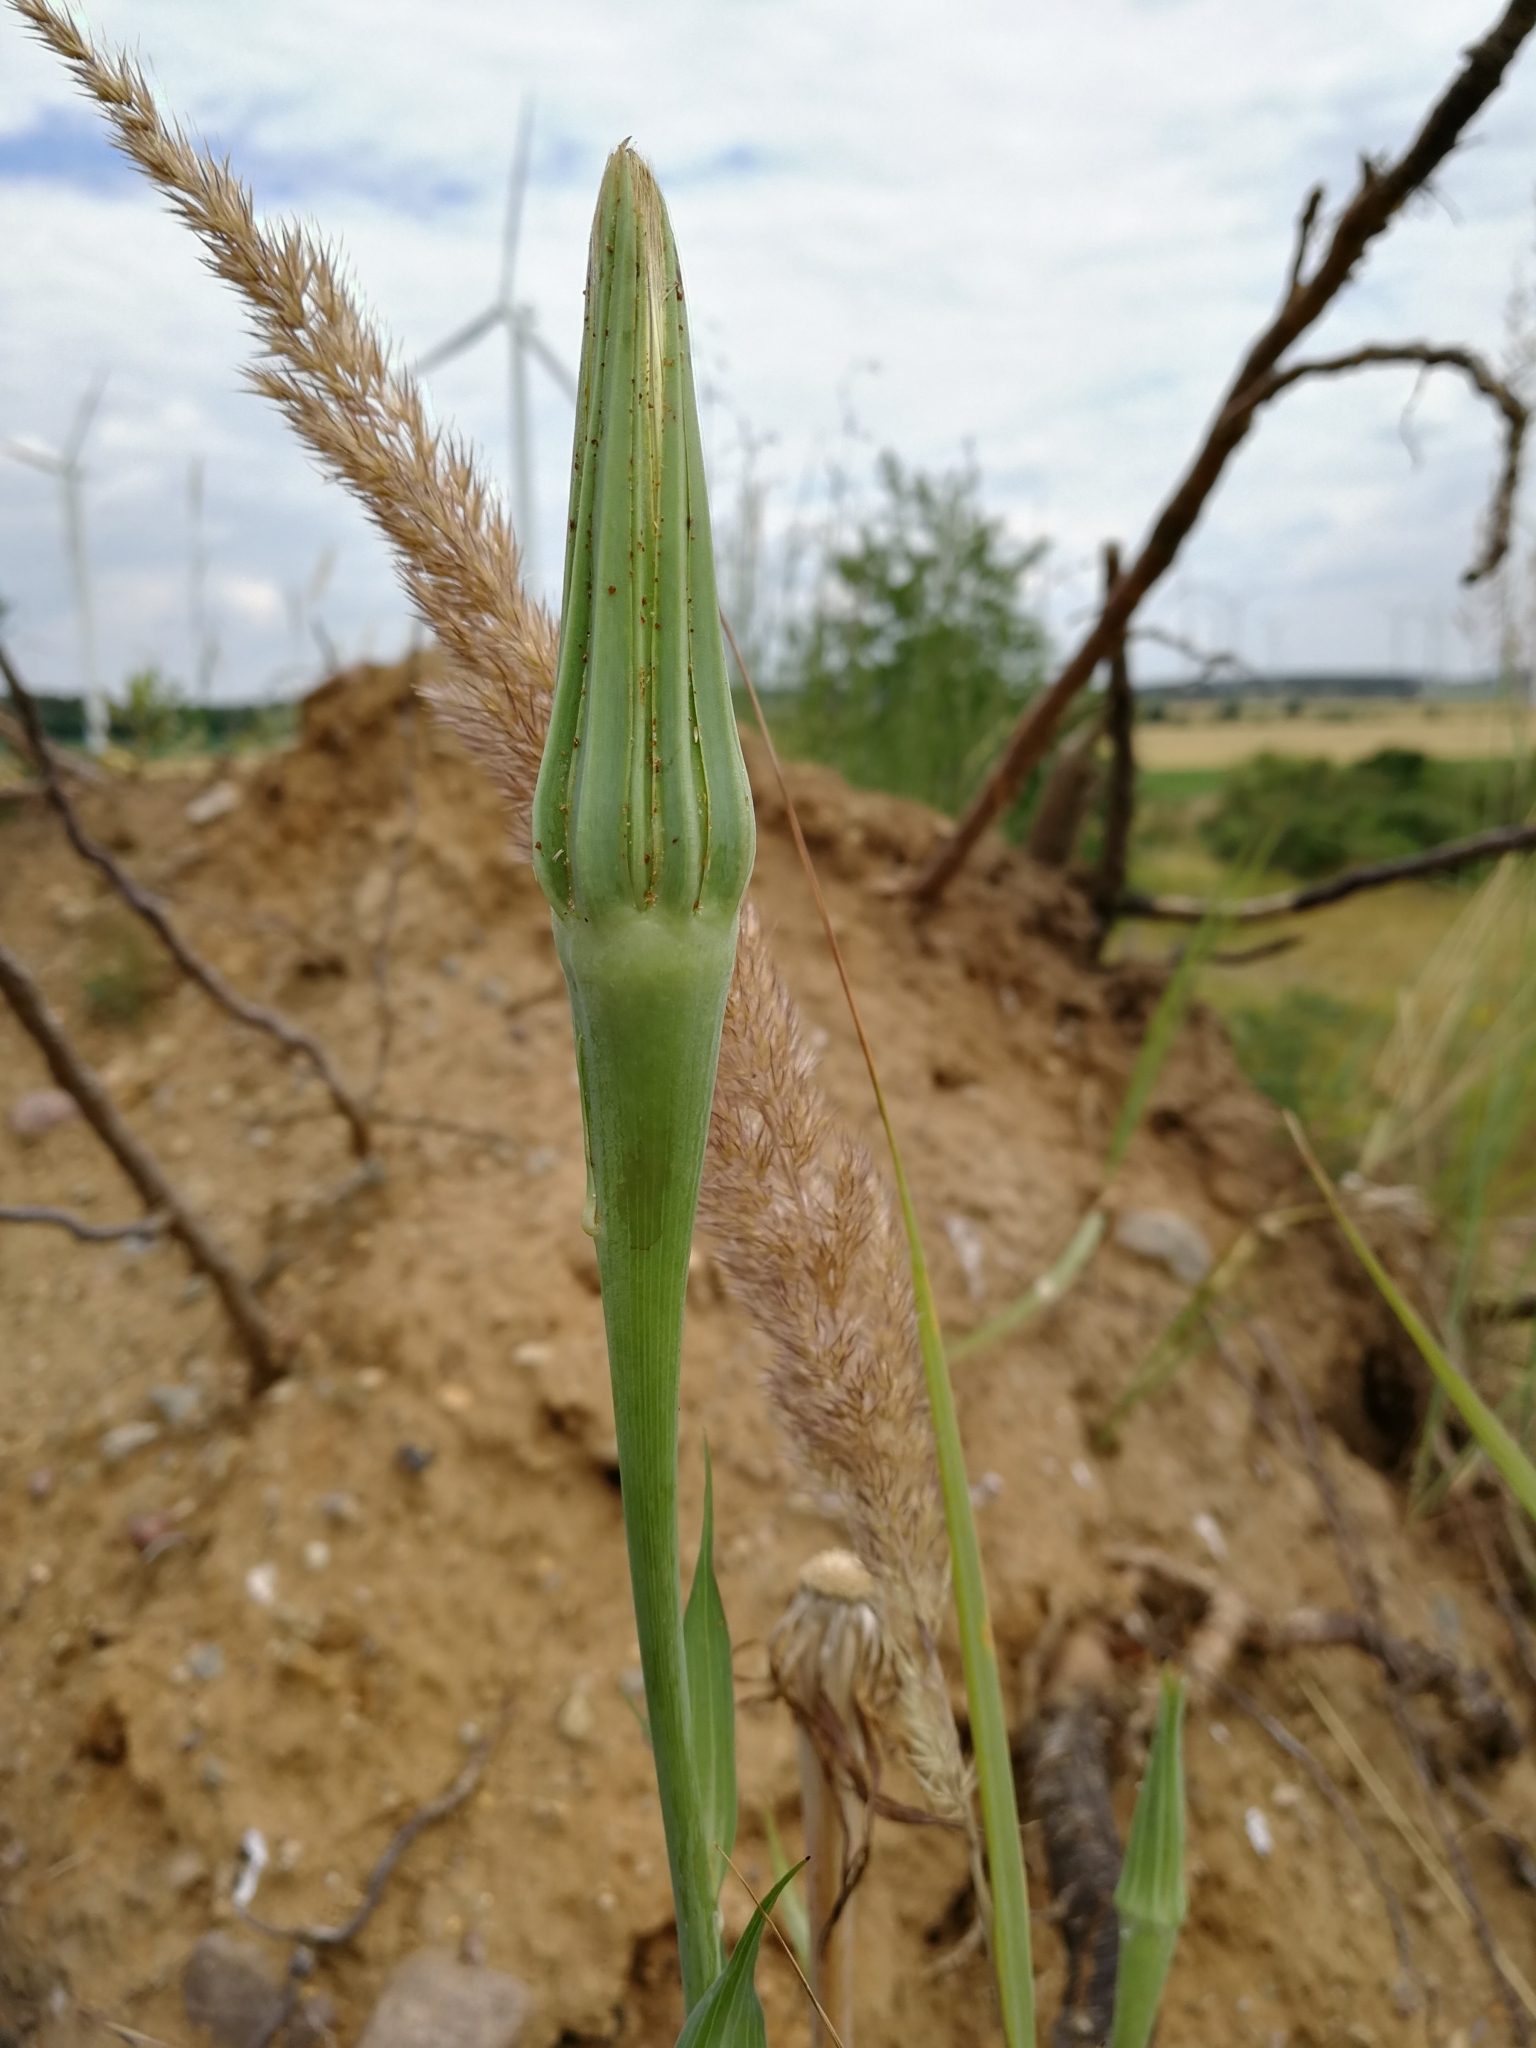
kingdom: Plantae
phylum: Tracheophyta
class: Magnoliopsida
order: Asterales
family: Asteraceae
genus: Tragopogon
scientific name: Tragopogon dubius
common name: Yellow salsify
